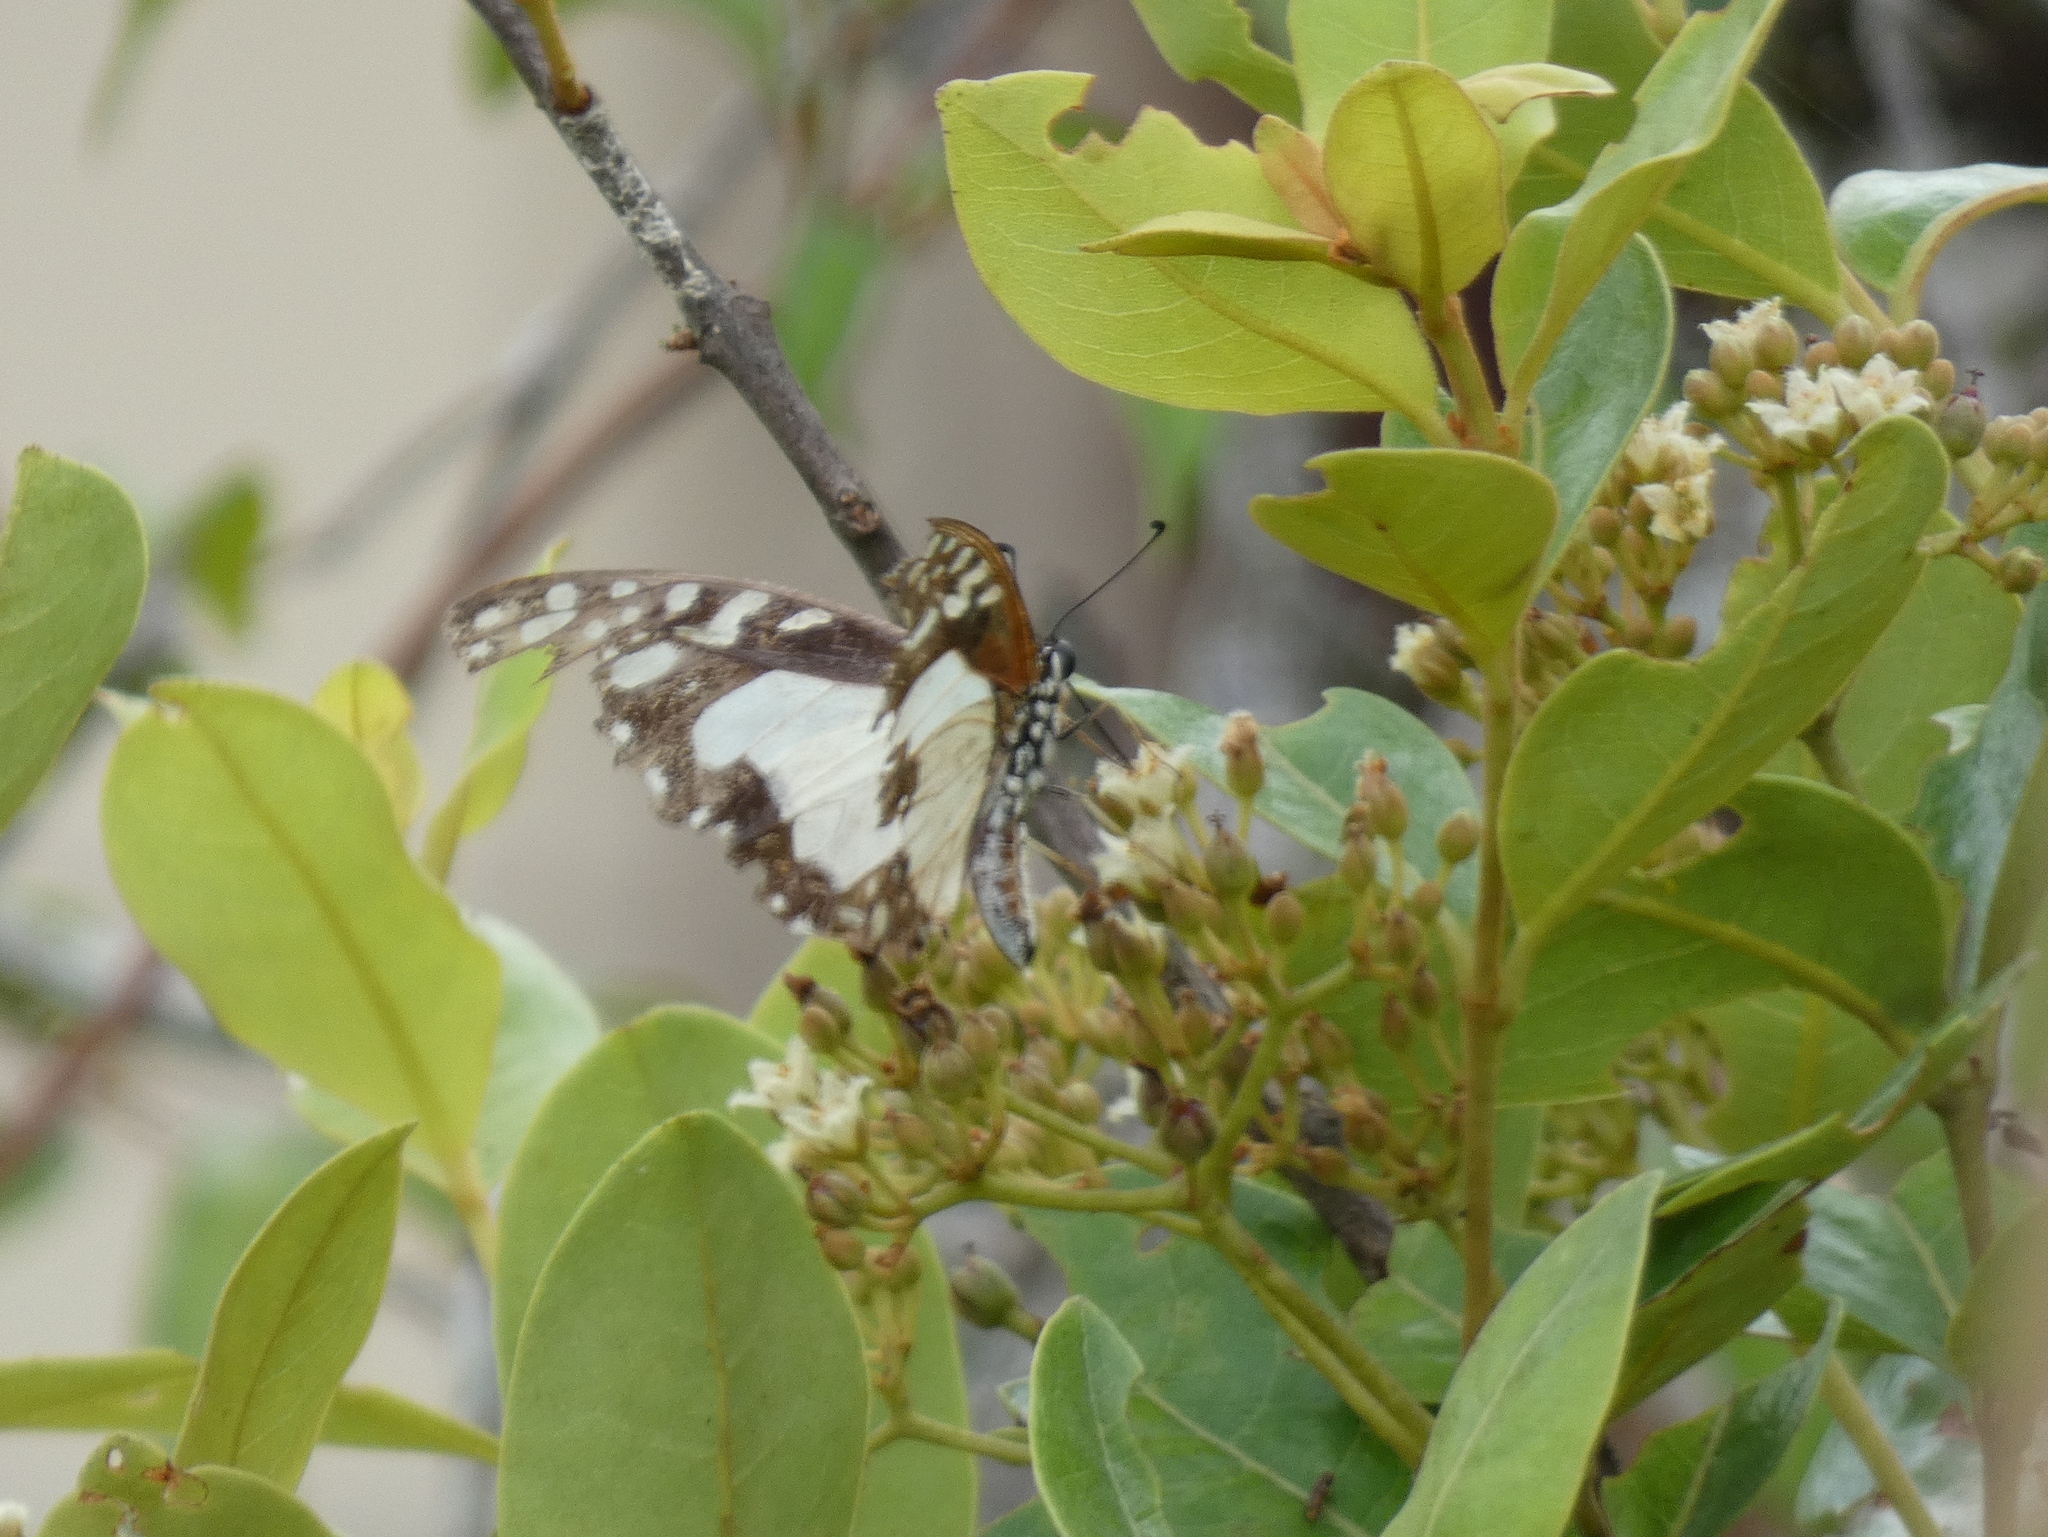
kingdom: Animalia
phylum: Arthropoda
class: Insecta
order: Lepidoptera
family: Papilionidae
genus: Graphium
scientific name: Graphium angolanus
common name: Angola white-lady swordtail
